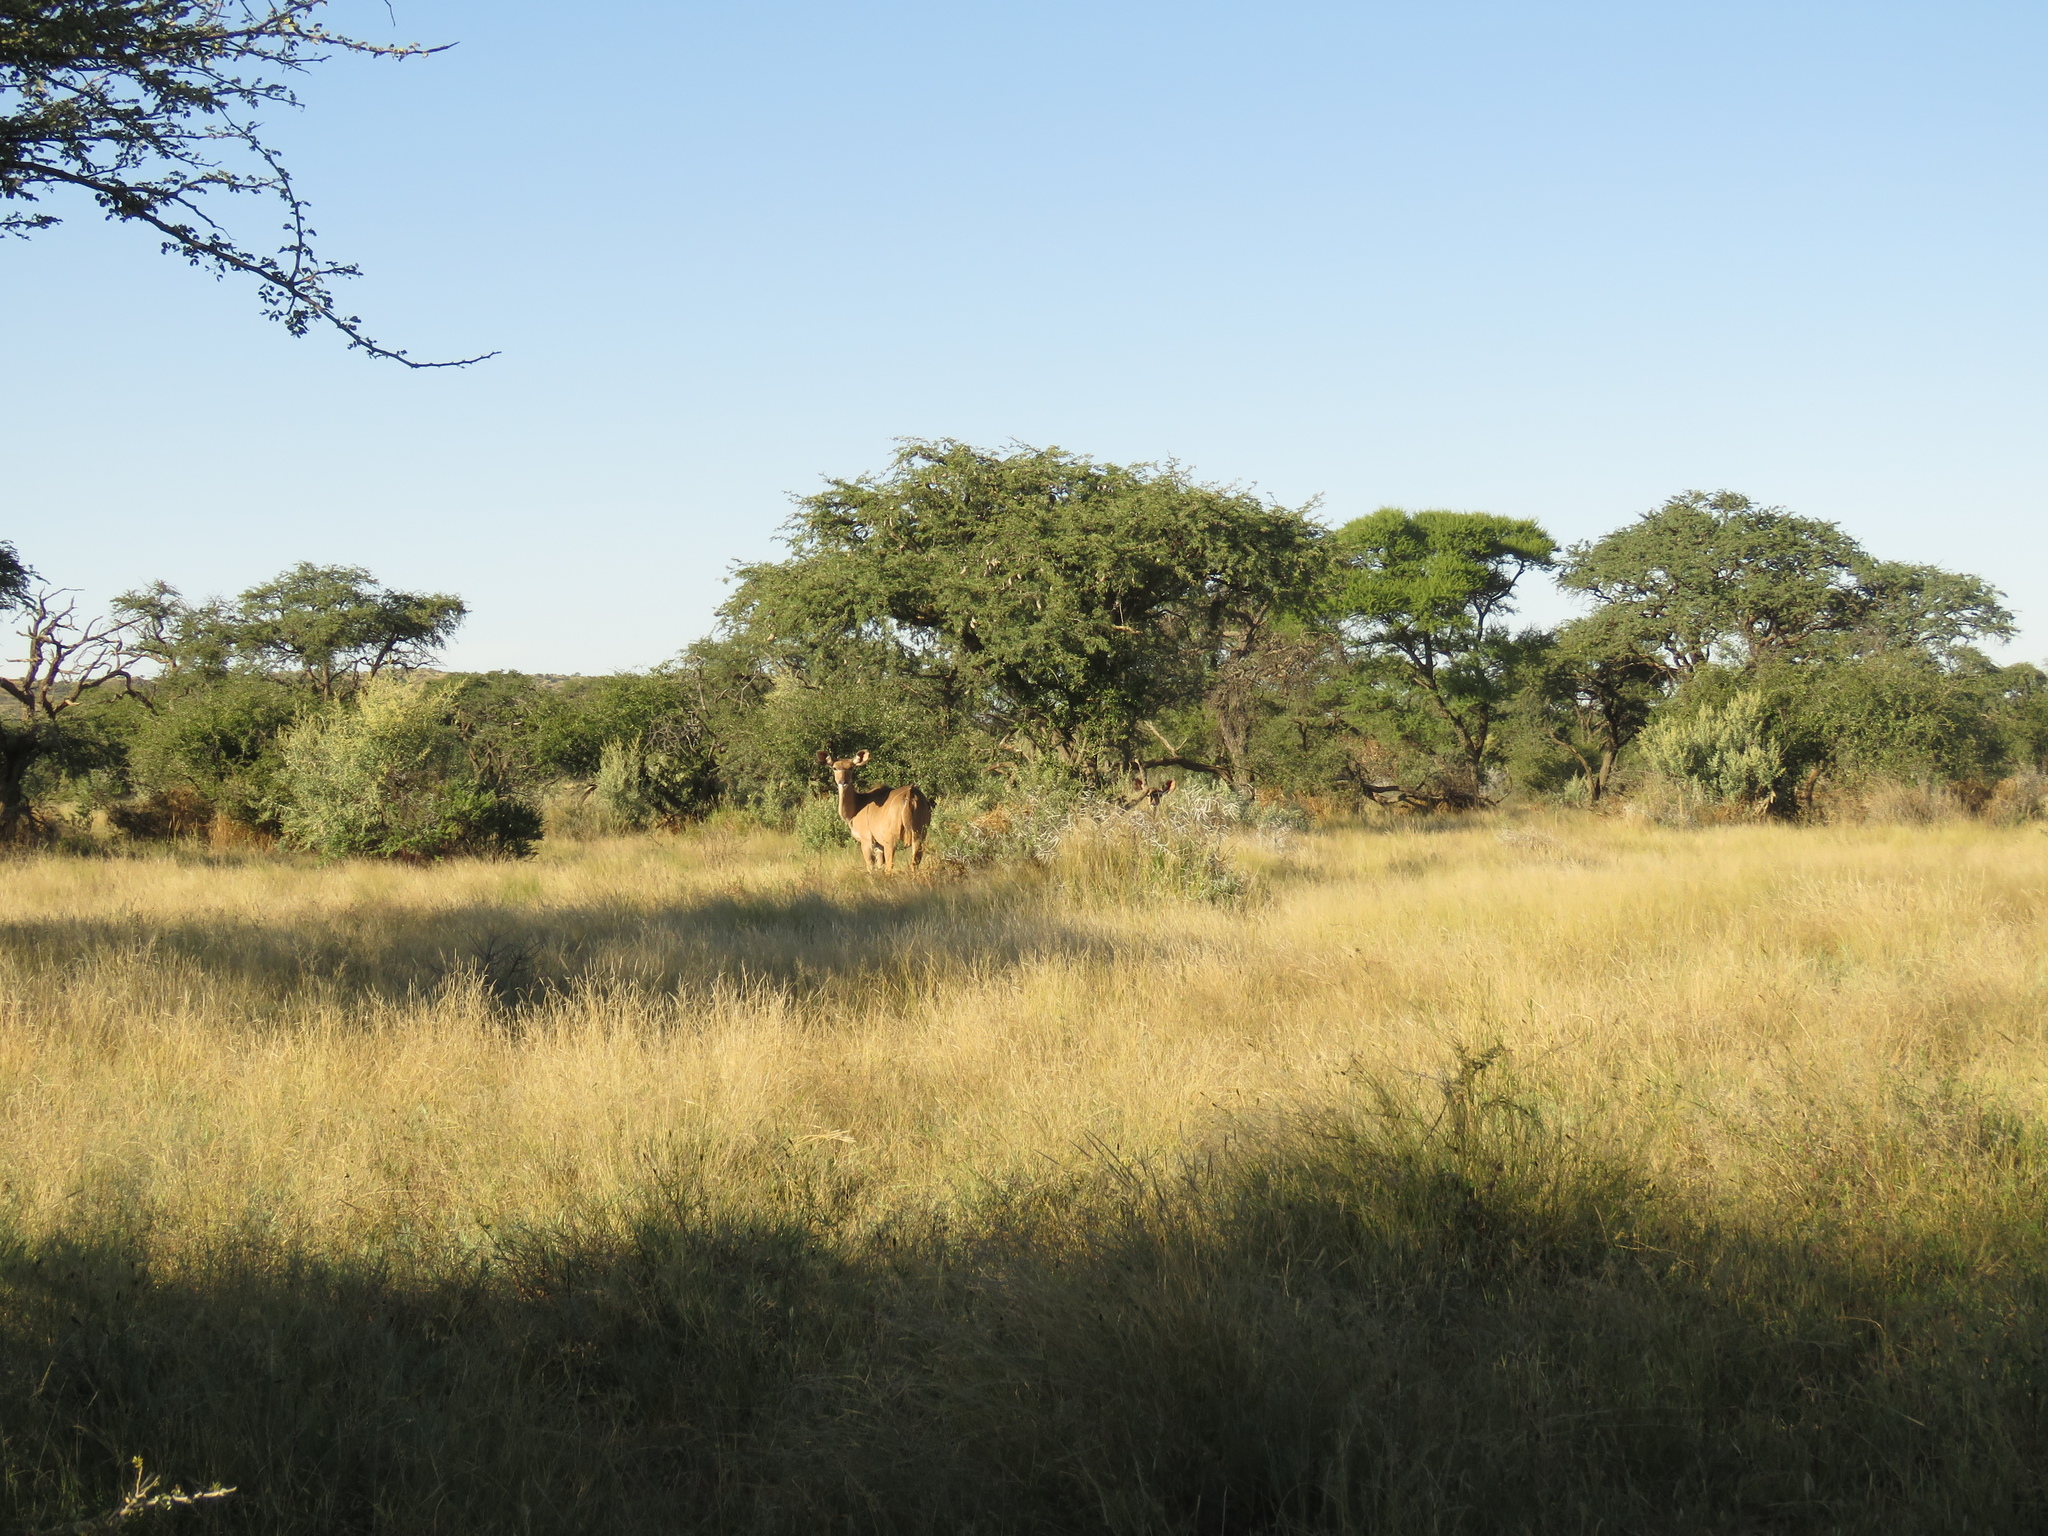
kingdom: Animalia
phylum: Chordata
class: Mammalia
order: Artiodactyla
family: Bovidae
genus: Tragelaphus
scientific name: Tragelaphus strepsiceros
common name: Greater kudu
